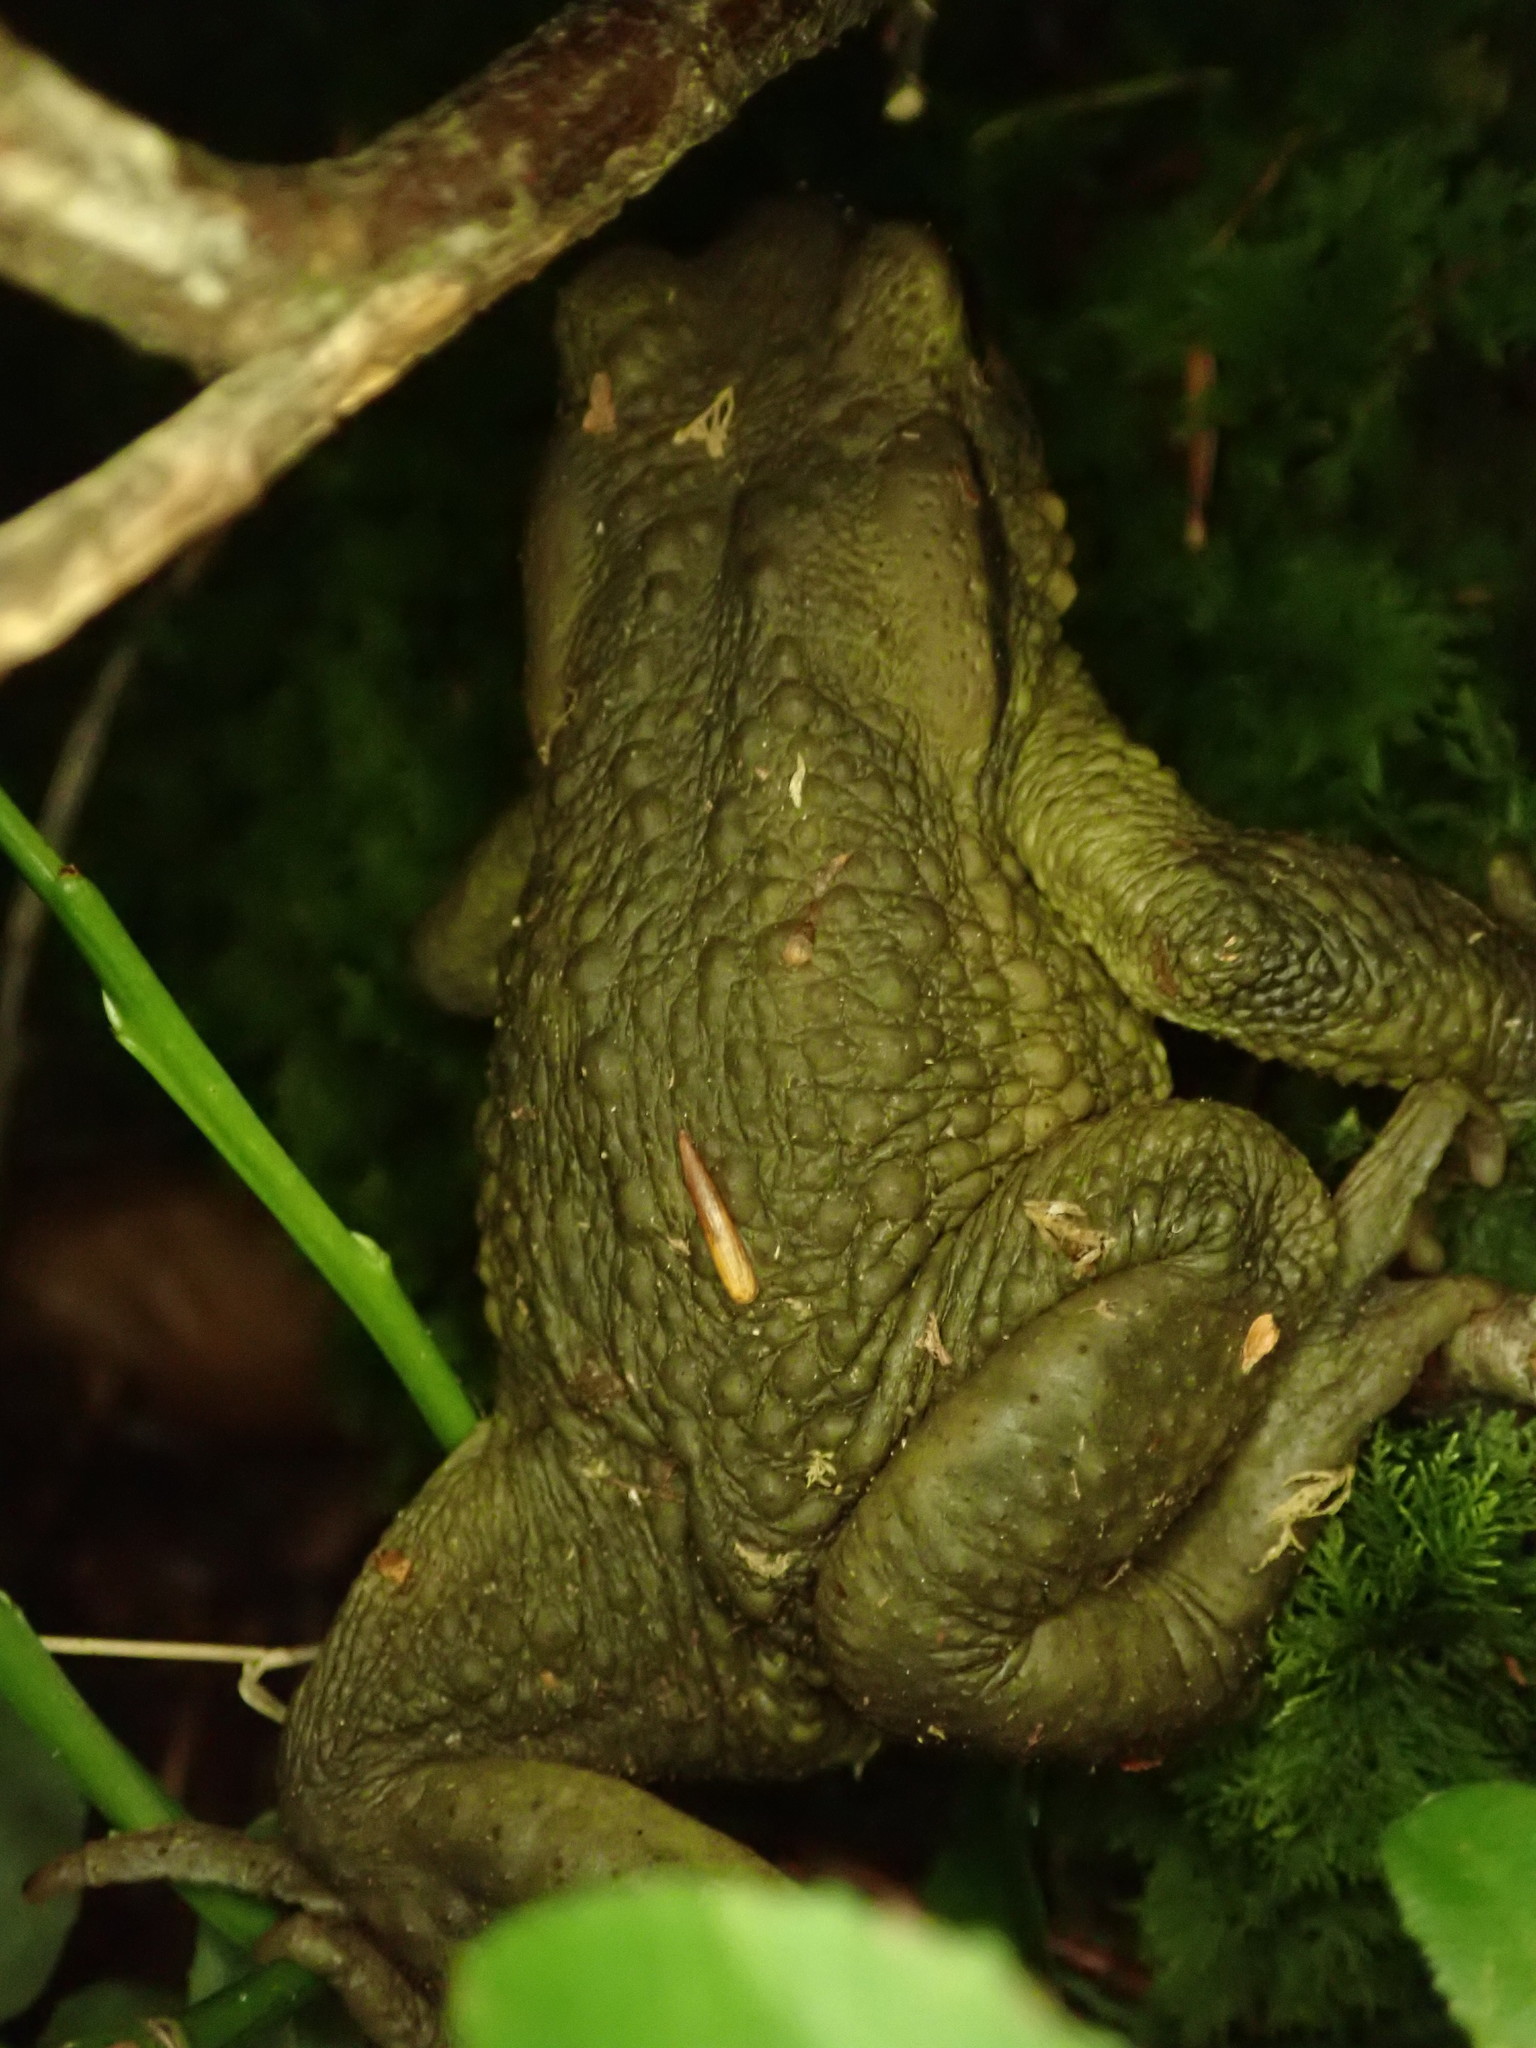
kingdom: Animalia
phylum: Chordata
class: Amphibia
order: Anura
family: Bufonidae
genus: Bufo
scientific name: Bufo spinosus
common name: Western common toad
